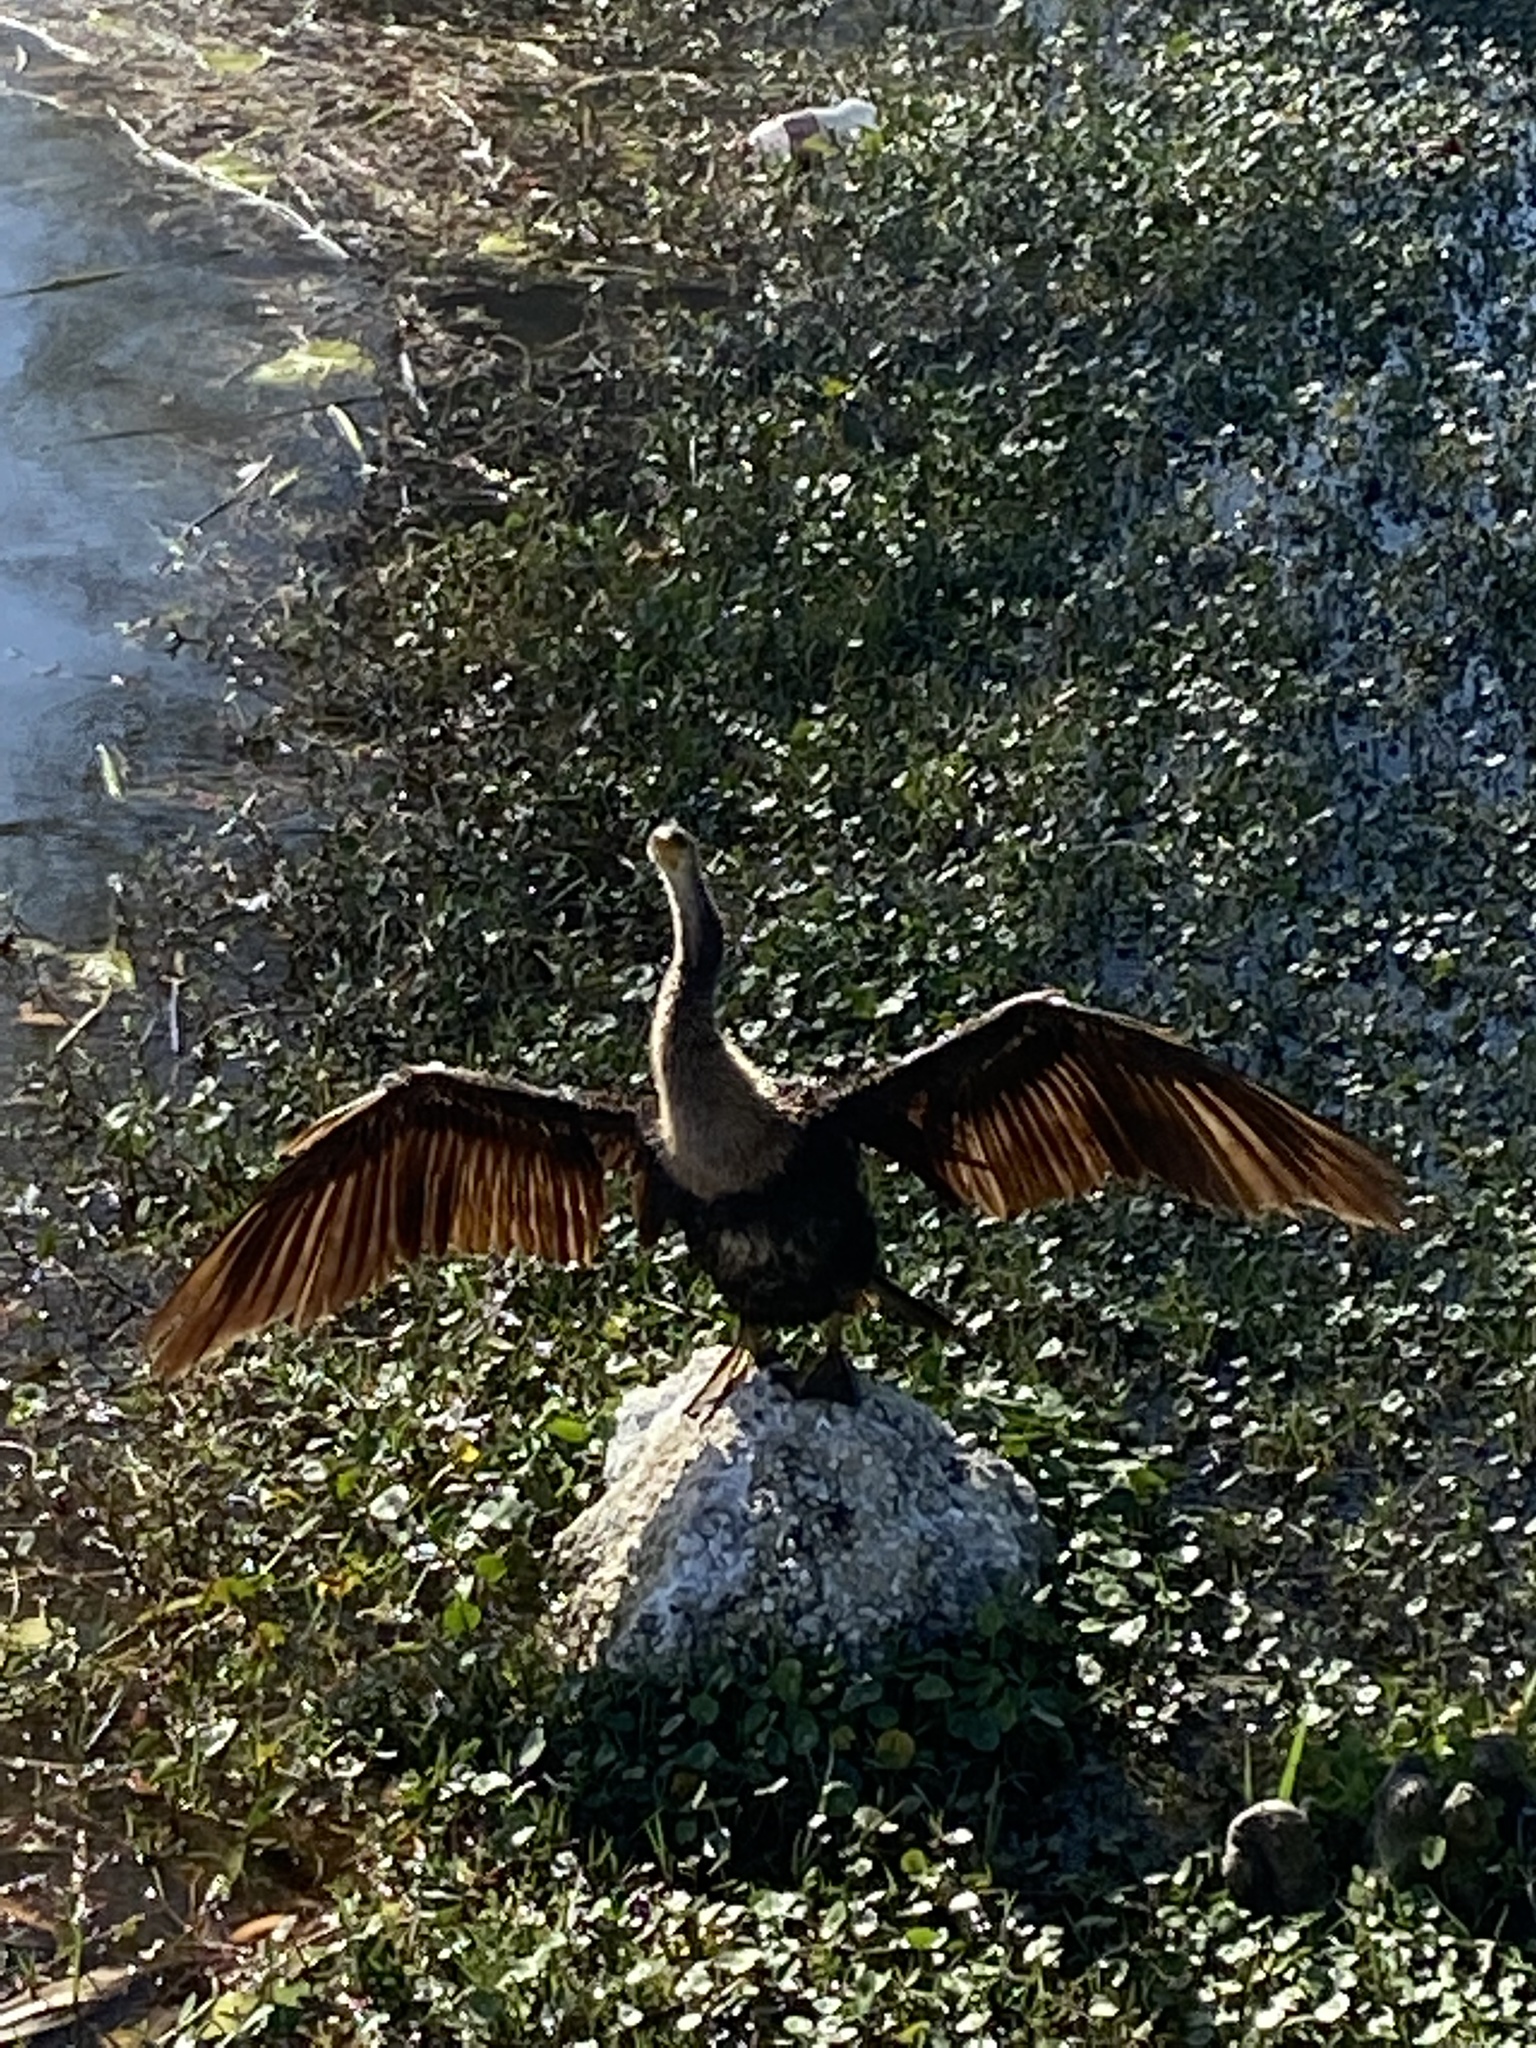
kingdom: Animalia
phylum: Chordata
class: Aves
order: Suliformes
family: Anhingidae
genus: Anhinga
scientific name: Anhinga anhinga
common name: Anhinga
